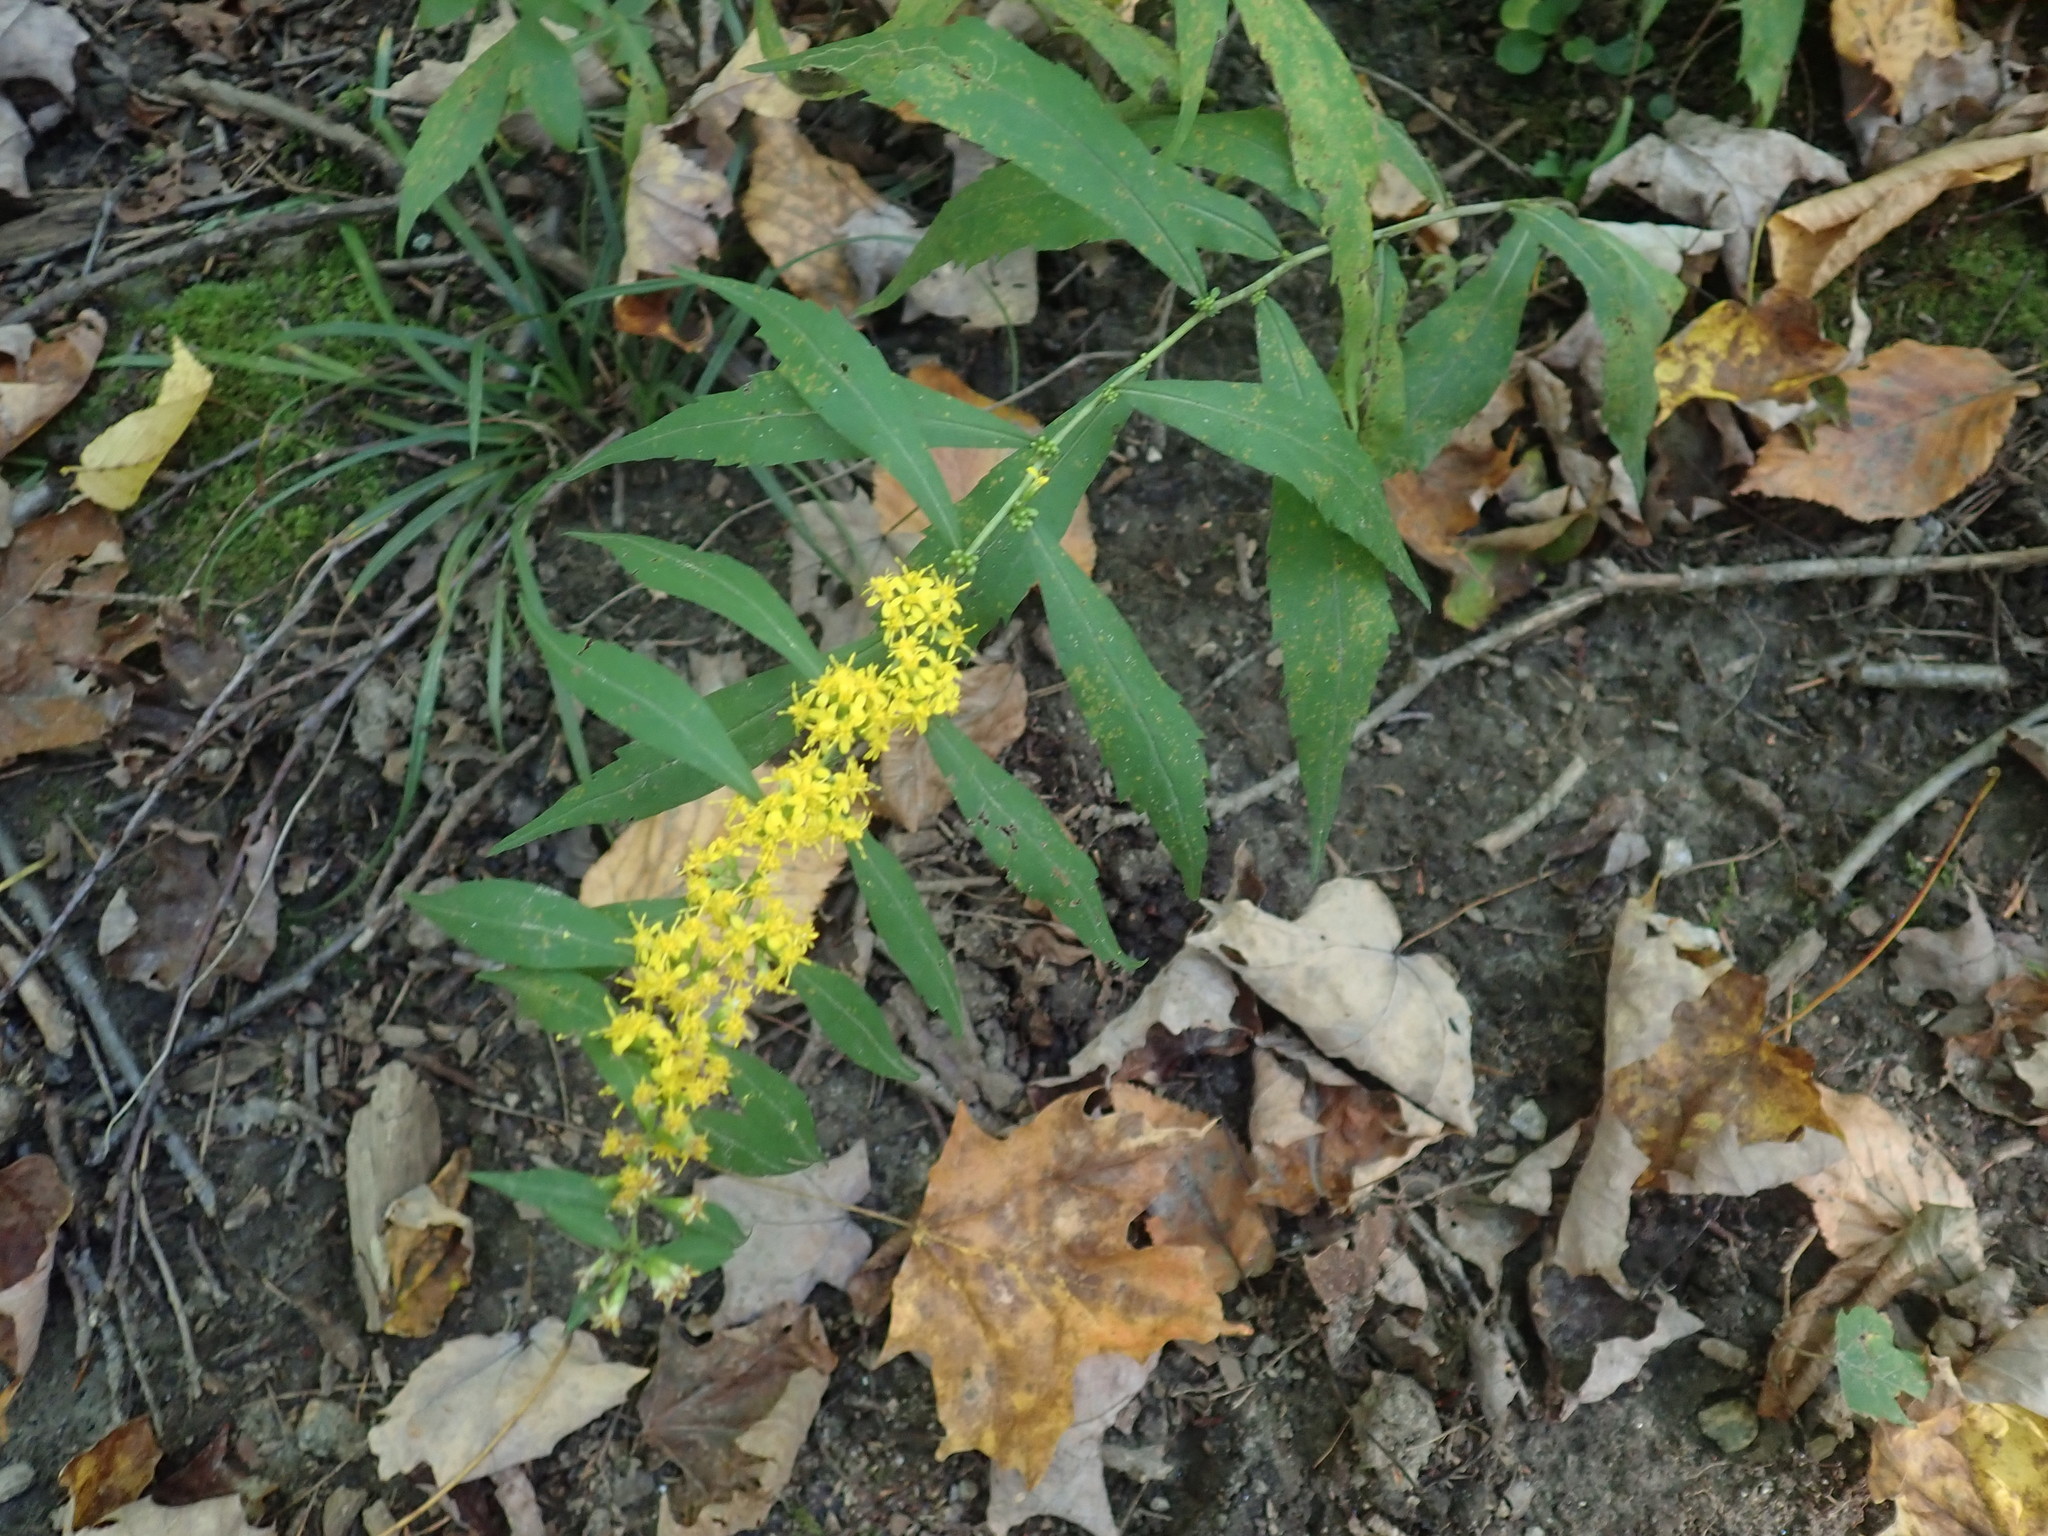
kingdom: Plantae
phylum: Tracheophyta
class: Magnoliopsida
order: Asterales
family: Asteraceae
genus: Solidago
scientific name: Solidago caesia
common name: Woodland goldenrod
